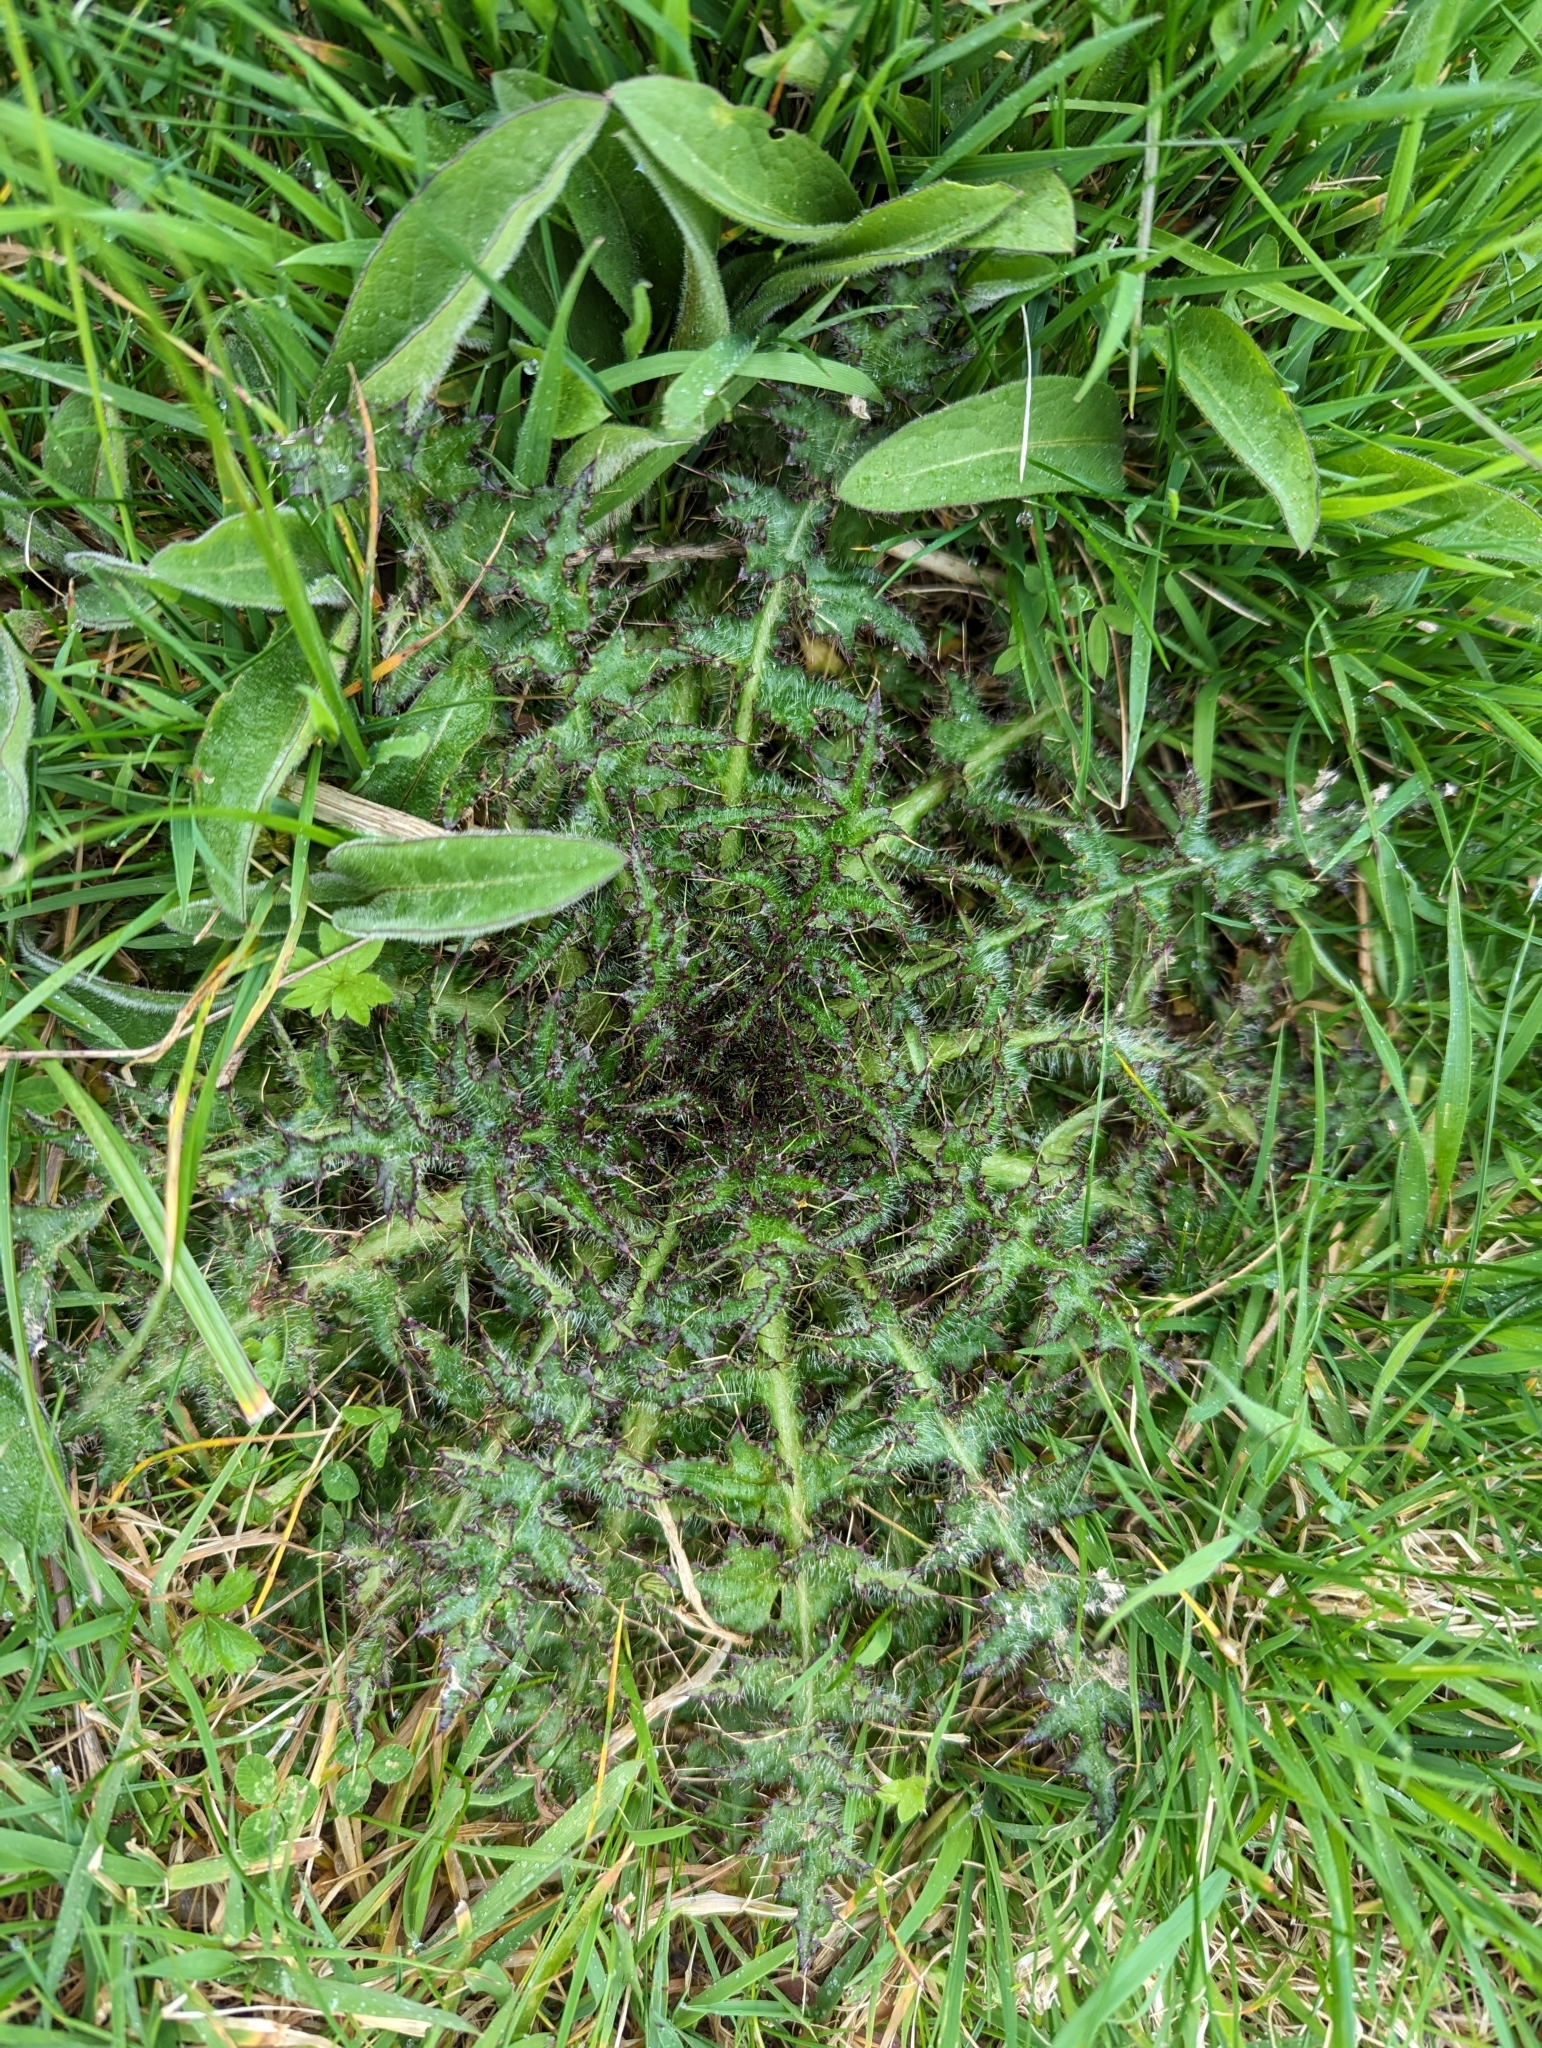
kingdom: Plantae
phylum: Tracheophyta
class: Magnoliopsida
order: Asterales
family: Asteraceae
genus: Cirsium
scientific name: Cirsium palustre
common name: Marsh thistle
